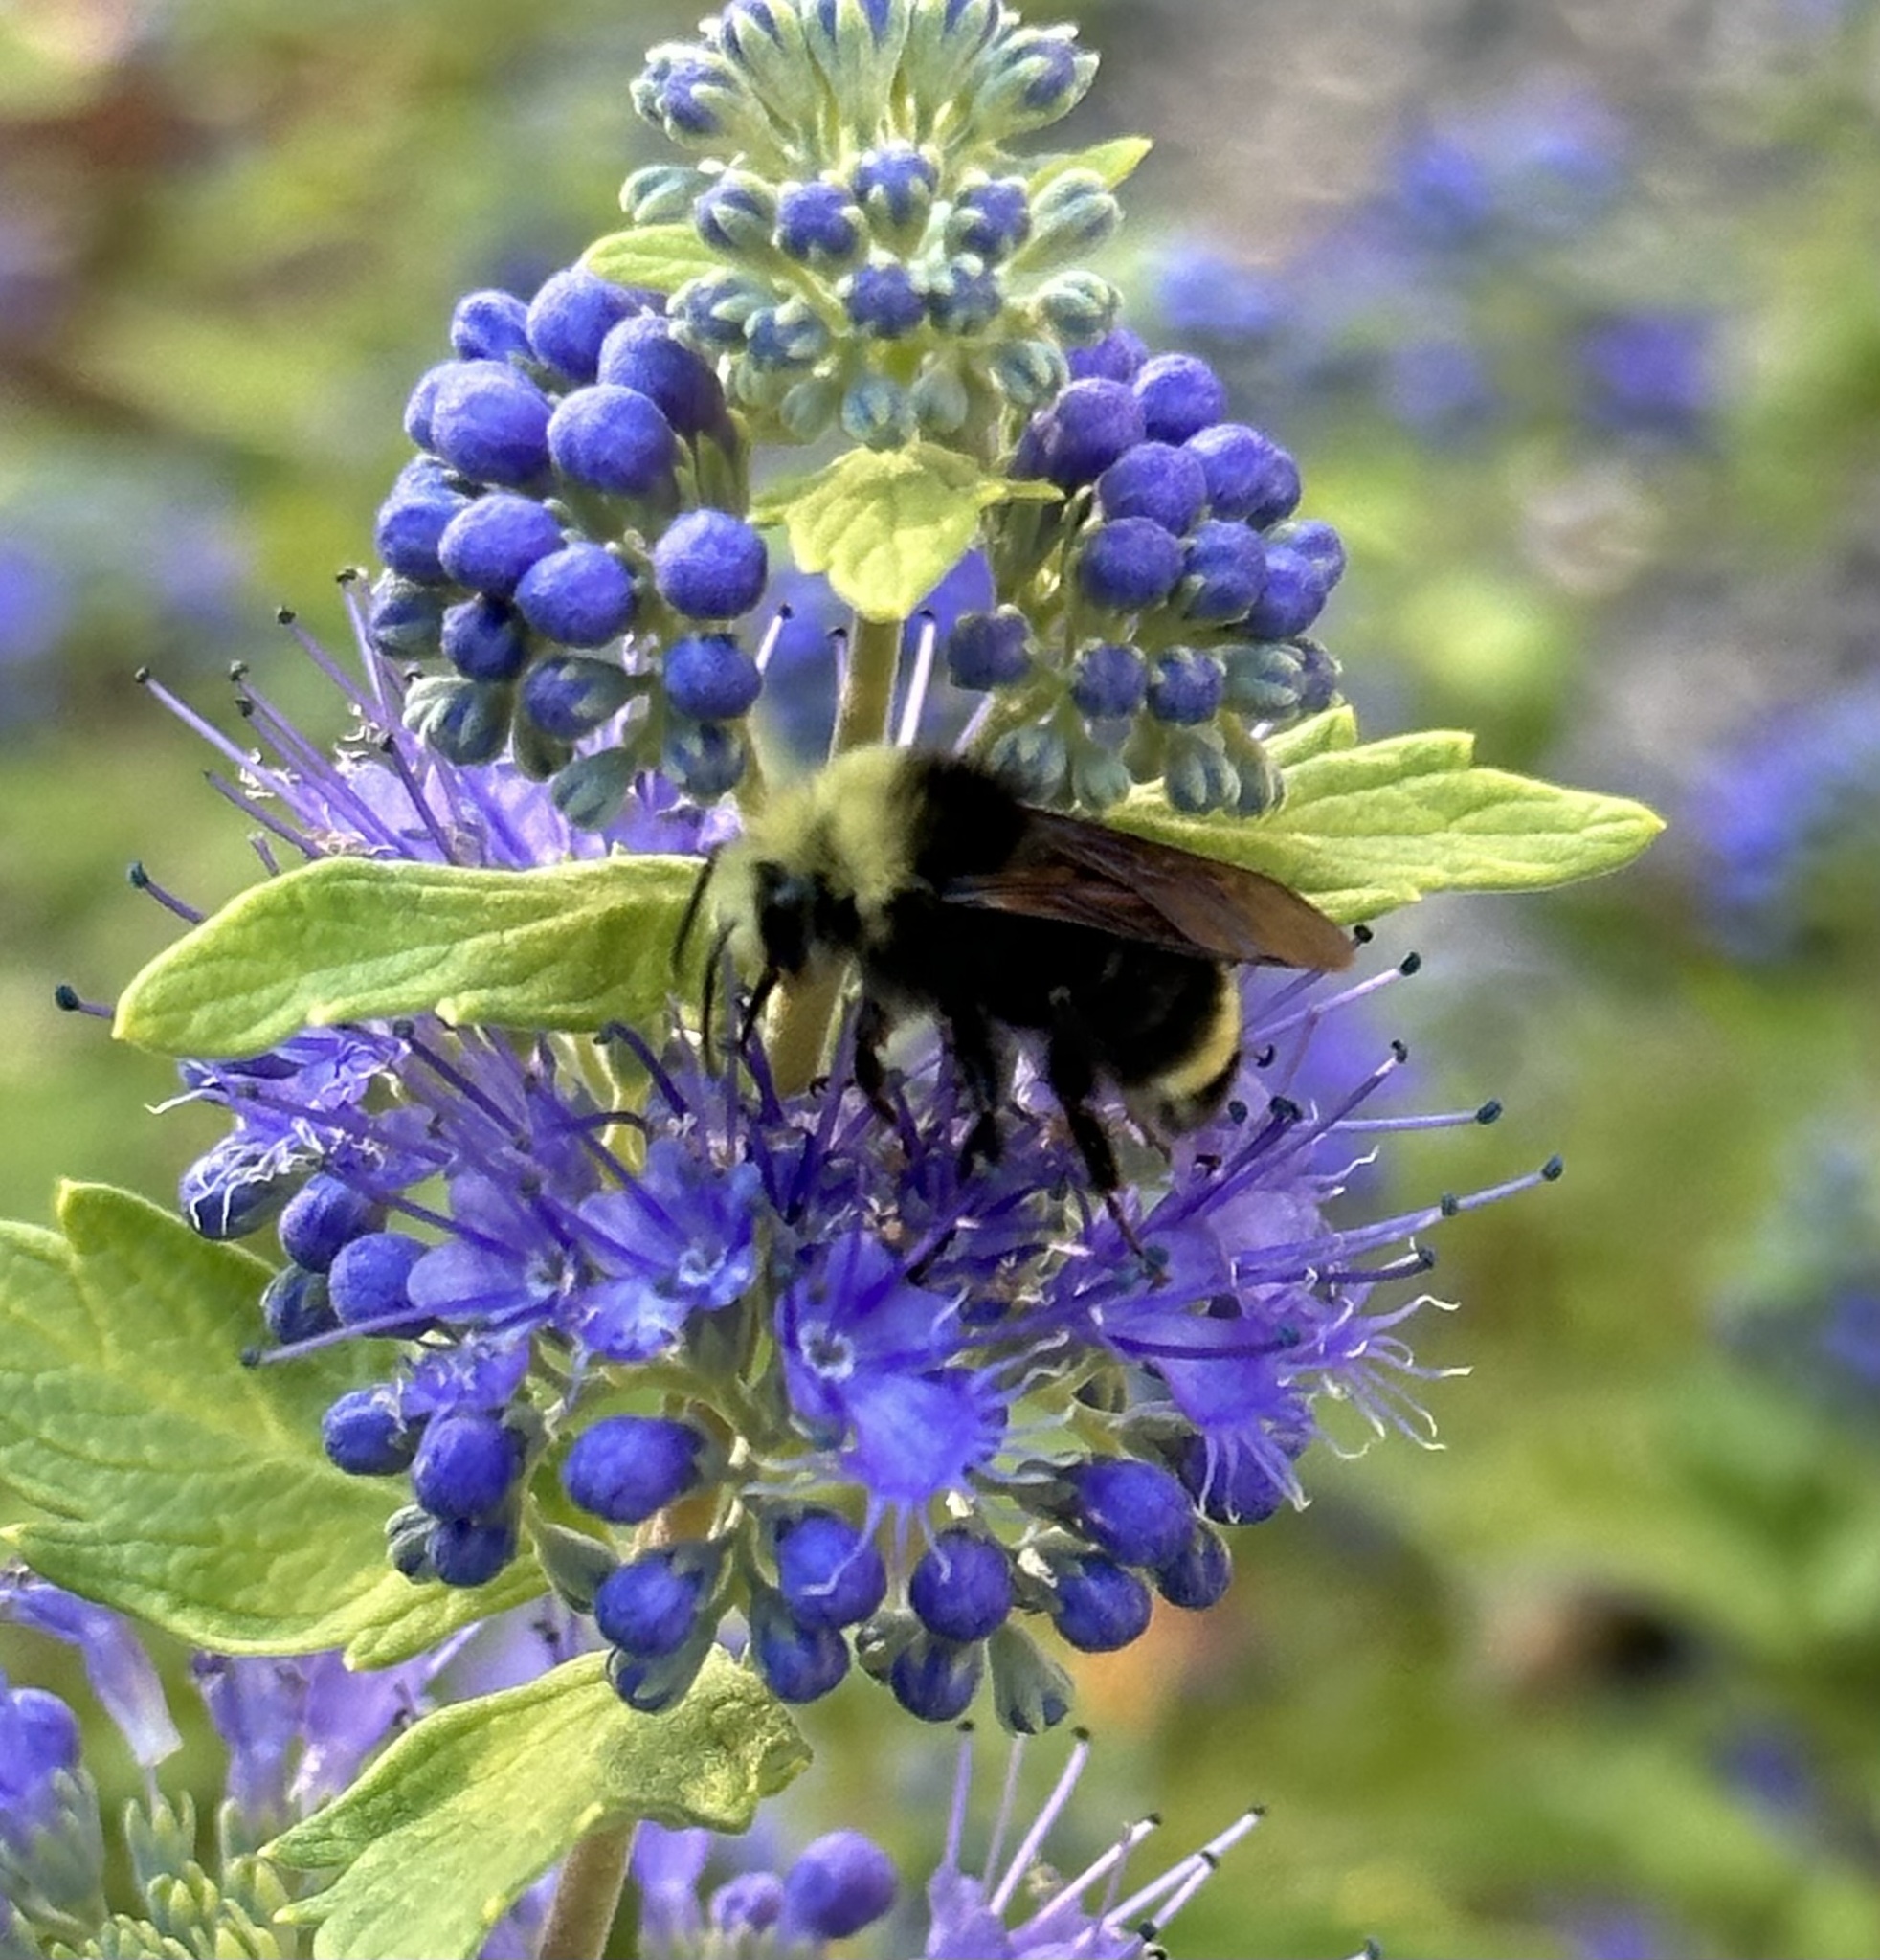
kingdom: Animalia
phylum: Arthropoda
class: Insecta
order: Hymenoptera
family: Apidae
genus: Bombus
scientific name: Bombus vosnesenskii
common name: Vosnesensky bumble bee
